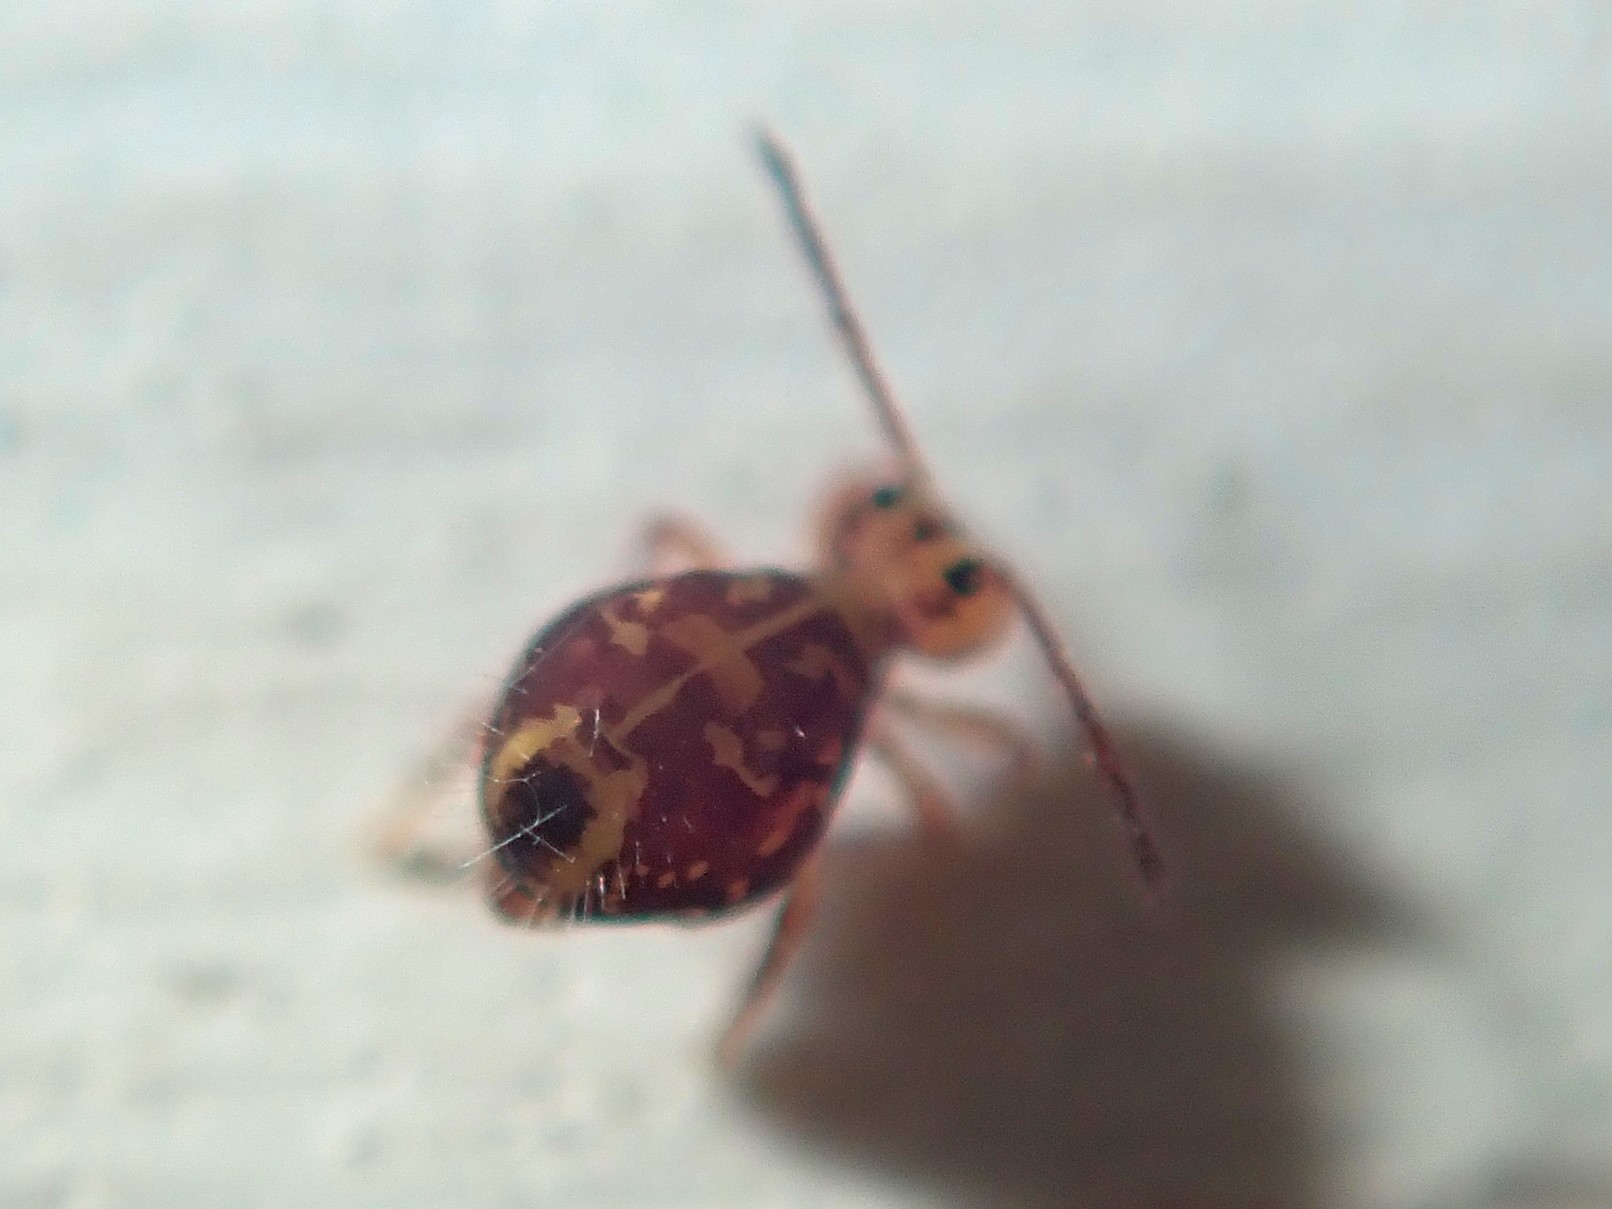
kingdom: Animalia
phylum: Arthropoda
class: Collembola
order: Symphypleona
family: Dicyrtomidae
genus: Dicyrtomina
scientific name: Dicyrtomina ornata
